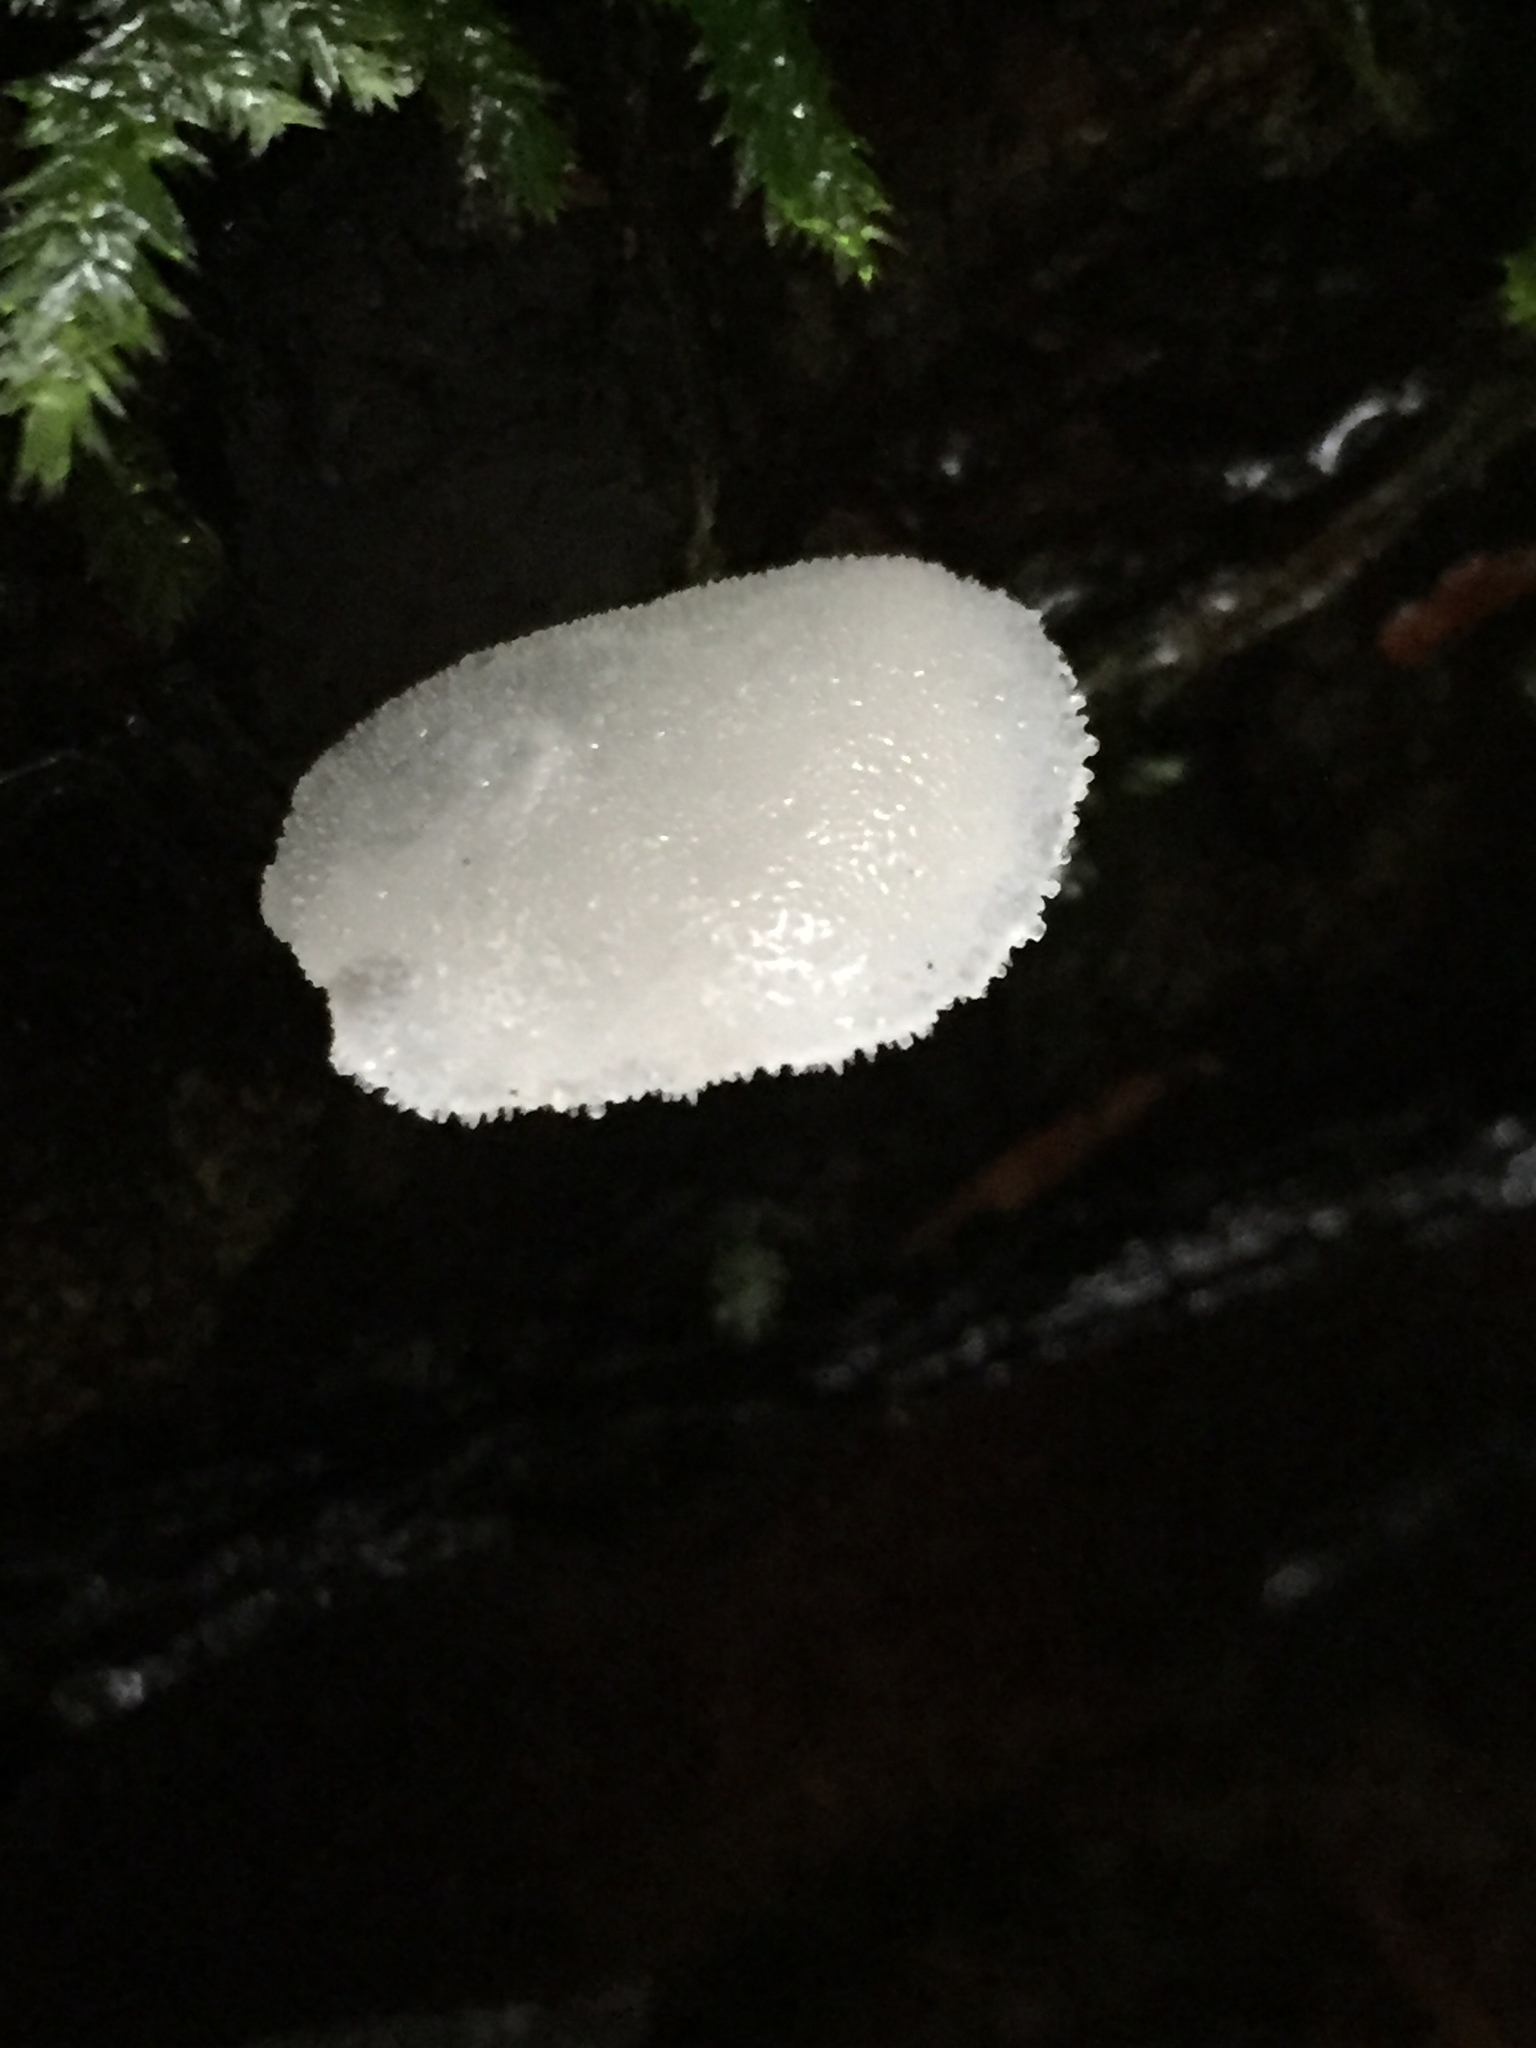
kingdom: Fungi
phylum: Basidiomycota
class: Agaricomycetes
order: Auriculariales
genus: Pseudohydnum
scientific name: Pseudohydnum gelatinosum
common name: Jelly tongue
